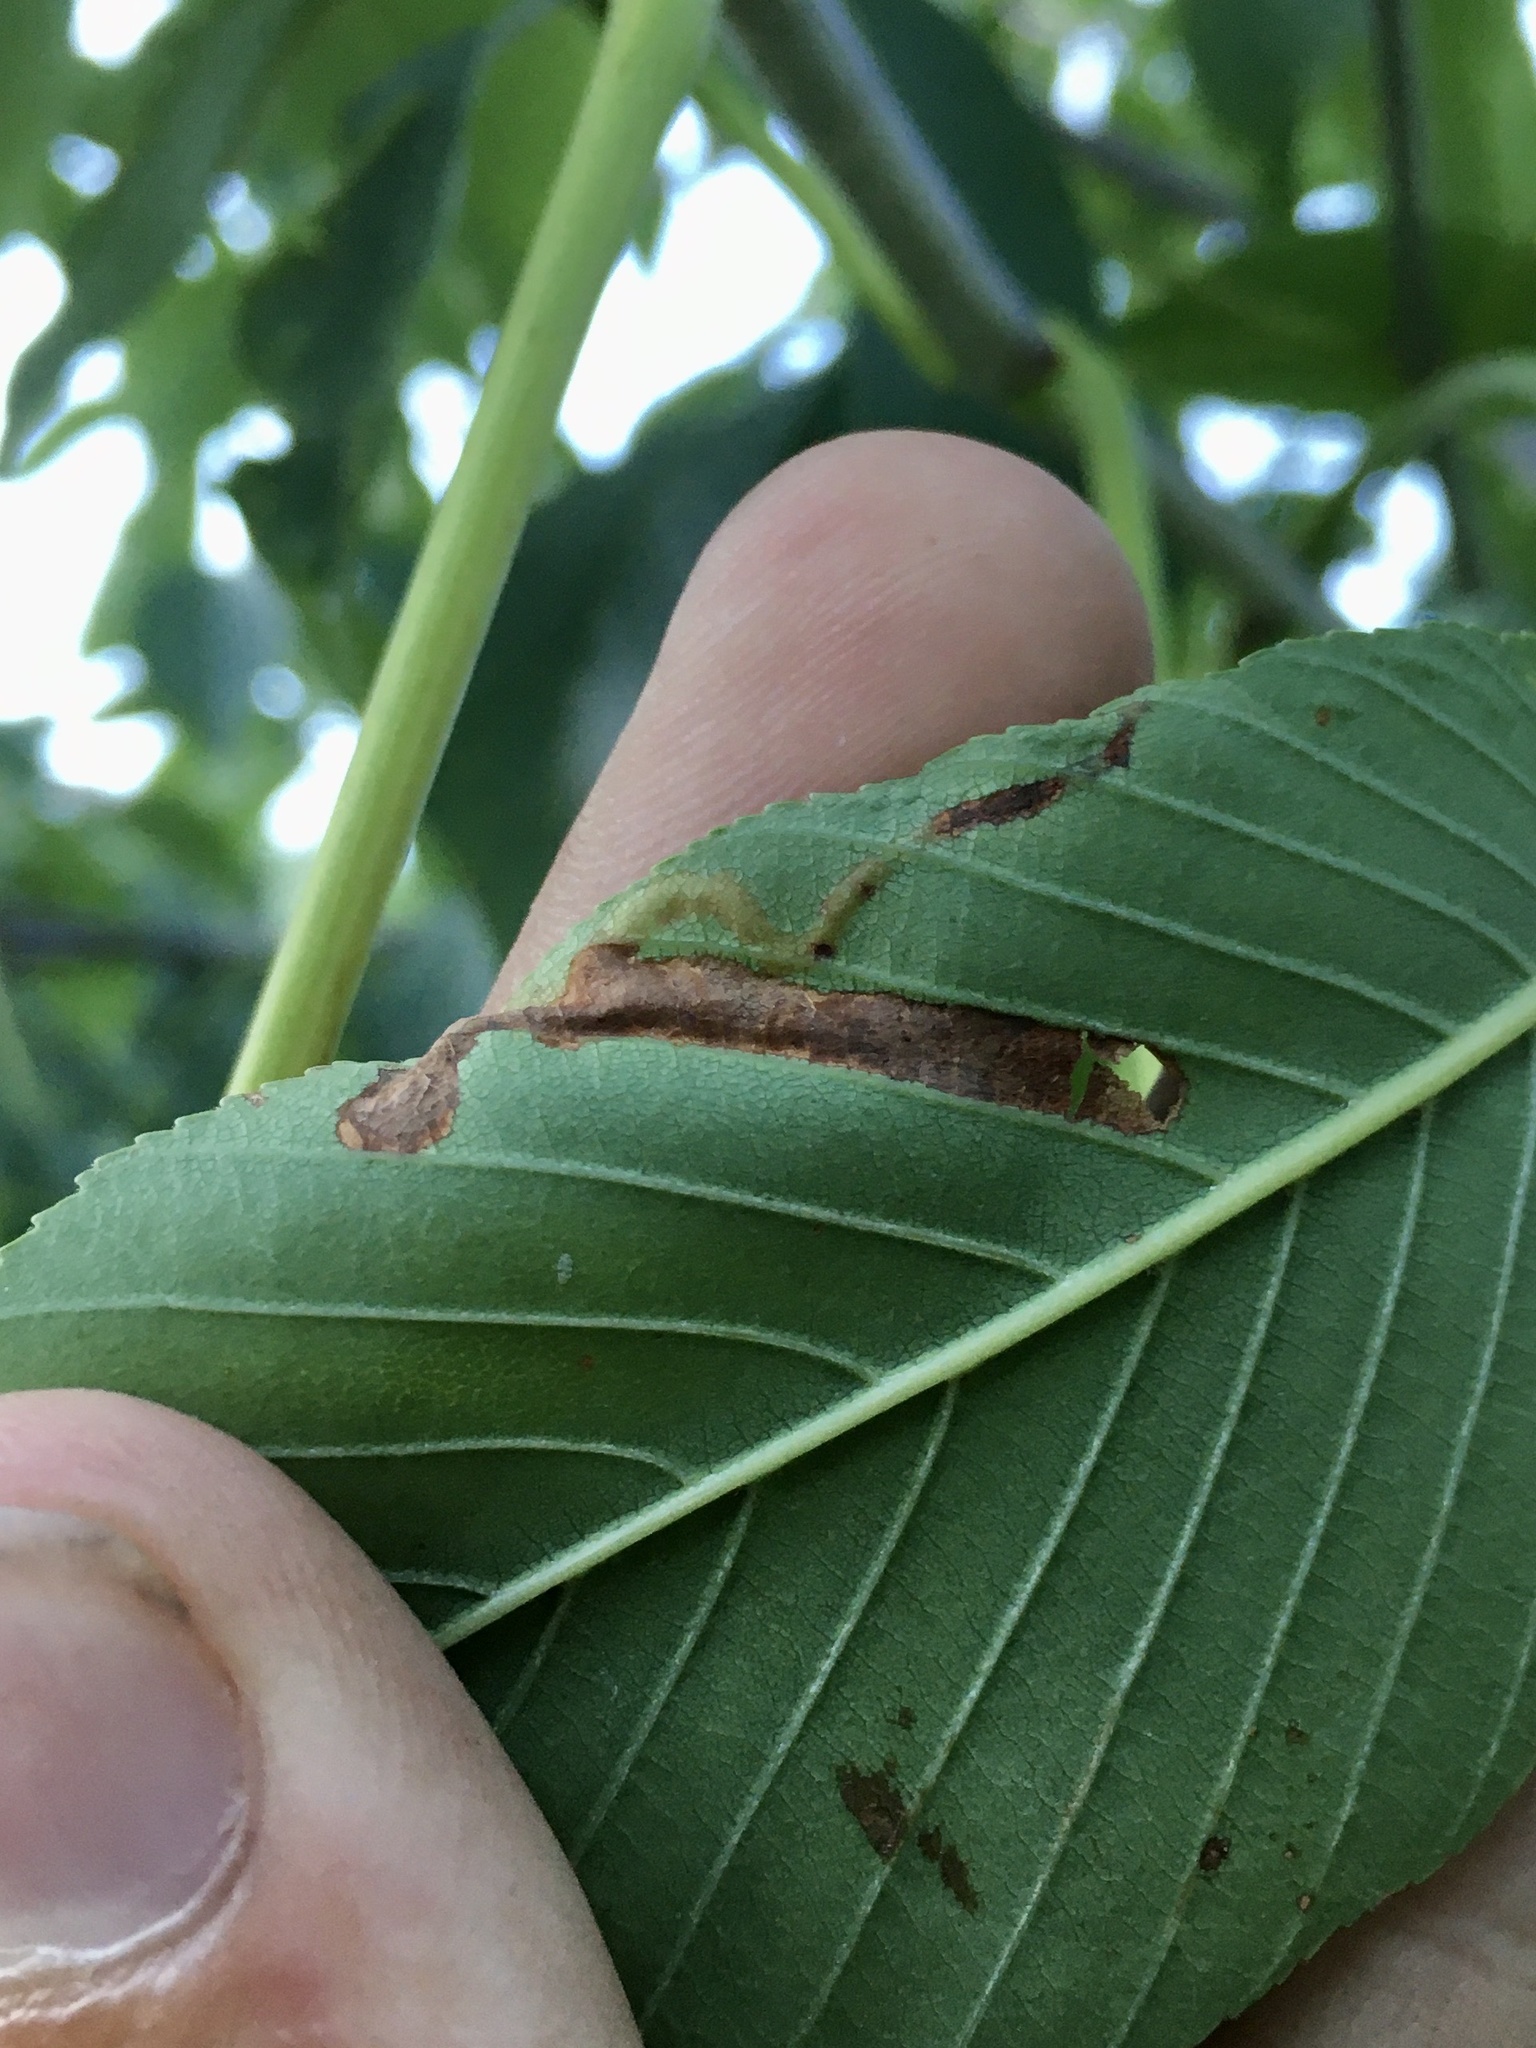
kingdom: Animalia
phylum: Arthropoda
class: Insecta
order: Diptera
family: Agromyzidae
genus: Phytomyza
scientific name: Phytomyza aesculi
